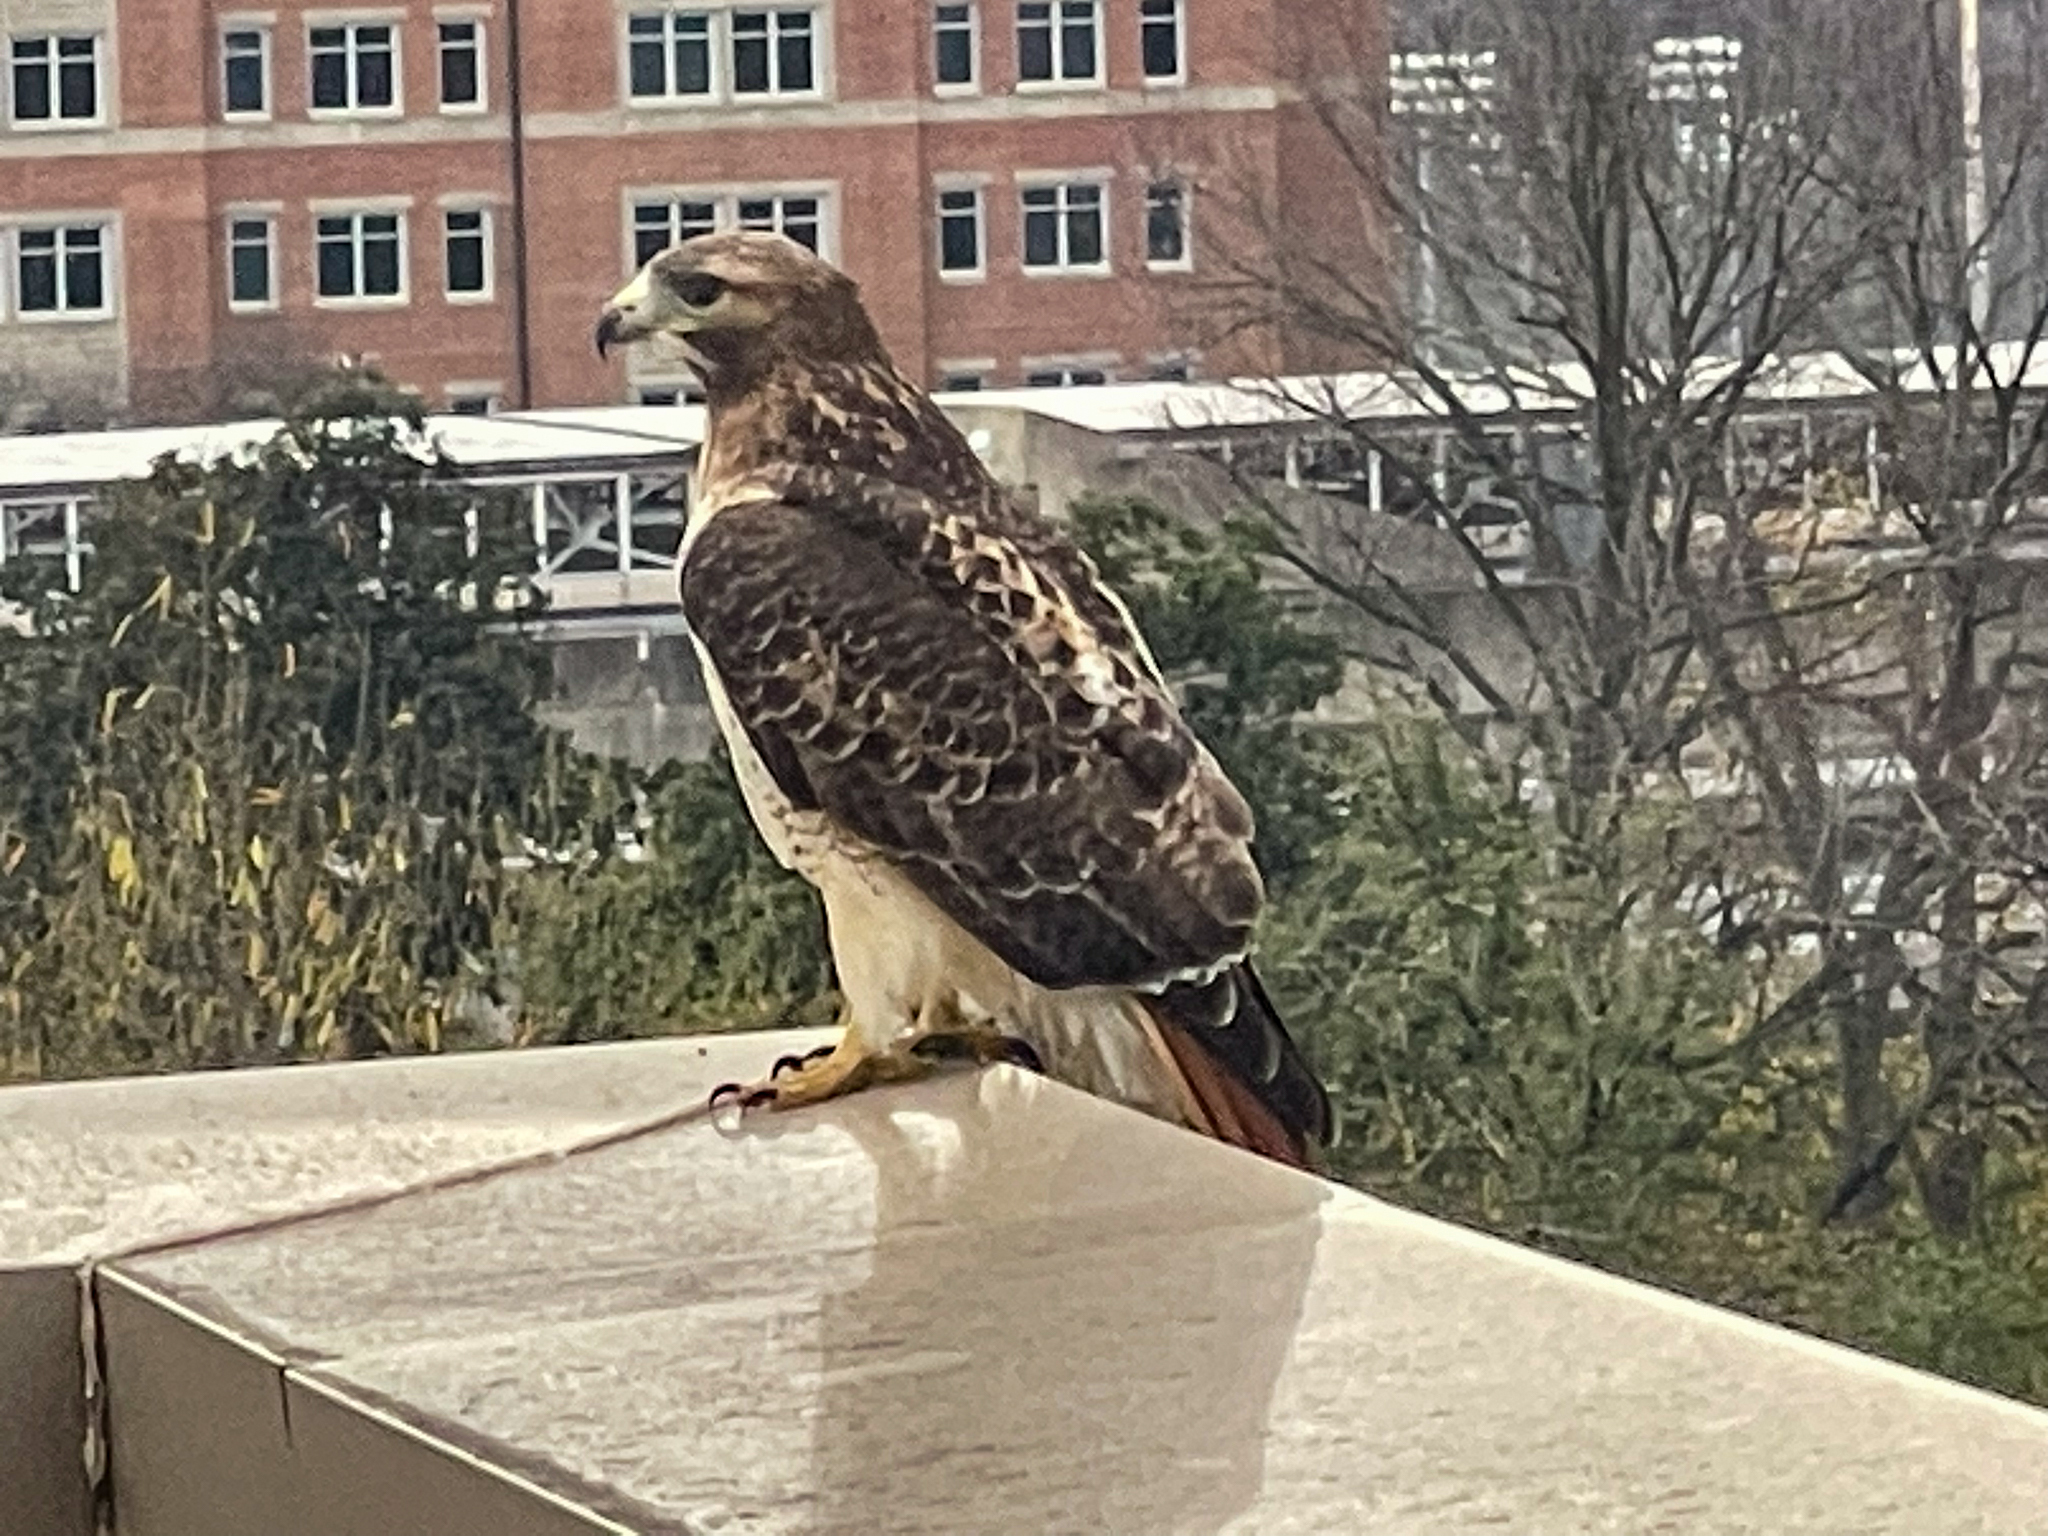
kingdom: Animalia
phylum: Chordata
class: Aves
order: Accipitriformes
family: Accipitridae
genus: Buteo
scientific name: Buteo jamaicensis
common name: Red-tailed hawk
